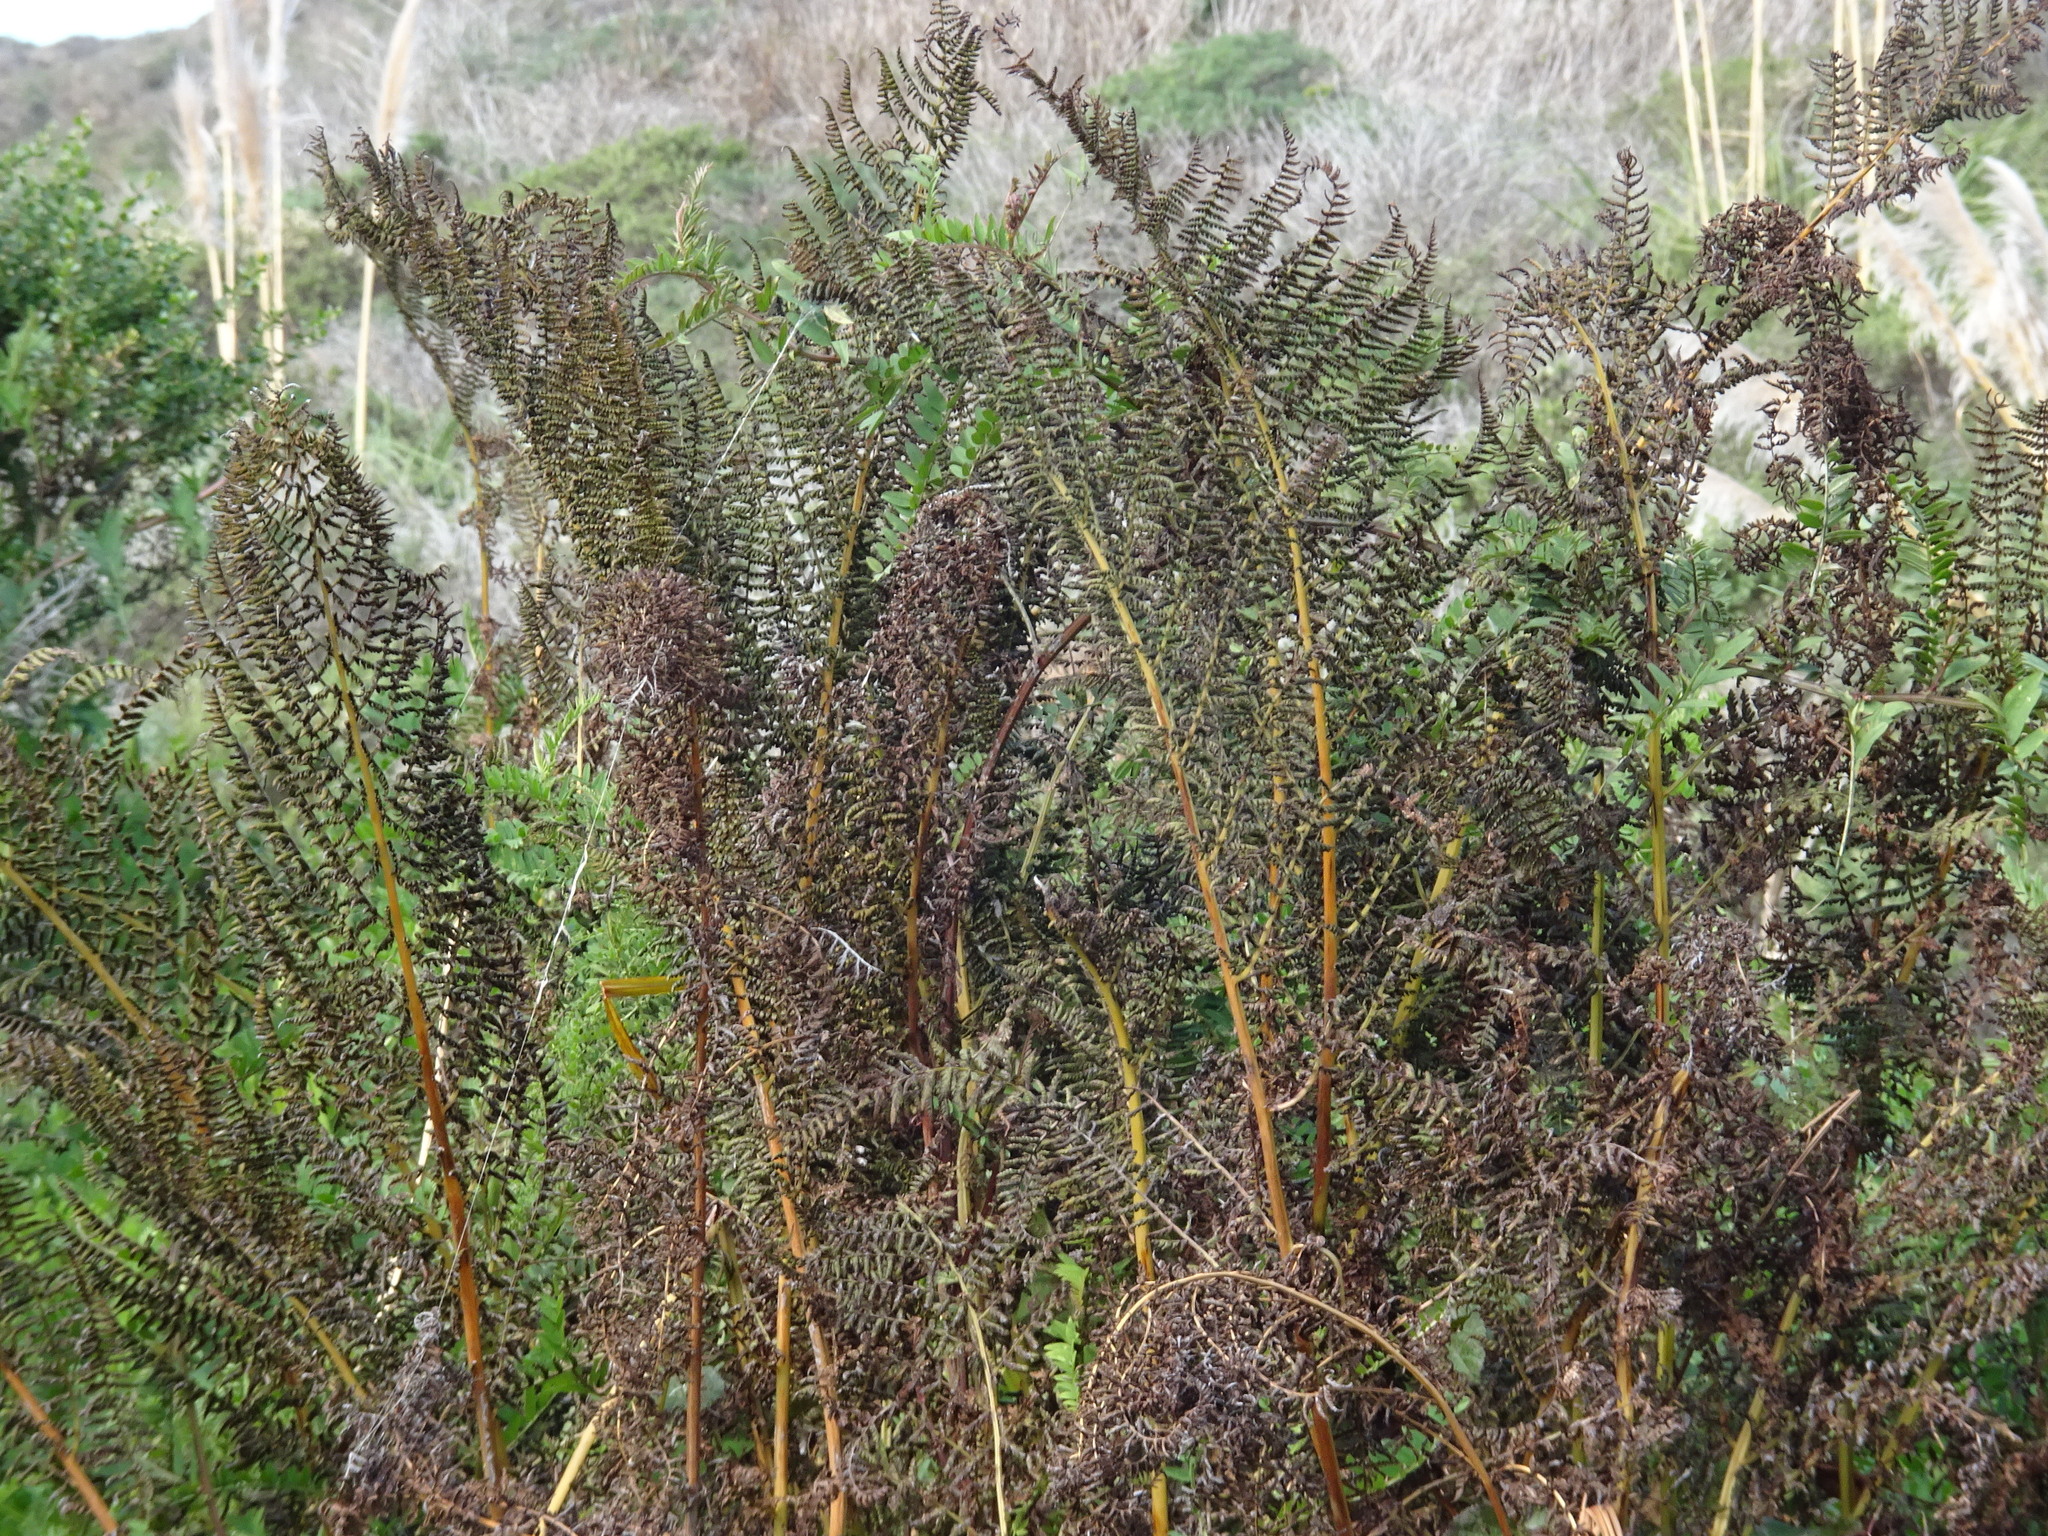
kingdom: Plantae
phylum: Tracheophyta
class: Polypodiopsida
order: Polypodiales
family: Athyriaceae
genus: Athyrium
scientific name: Athyrium cyclosorum
